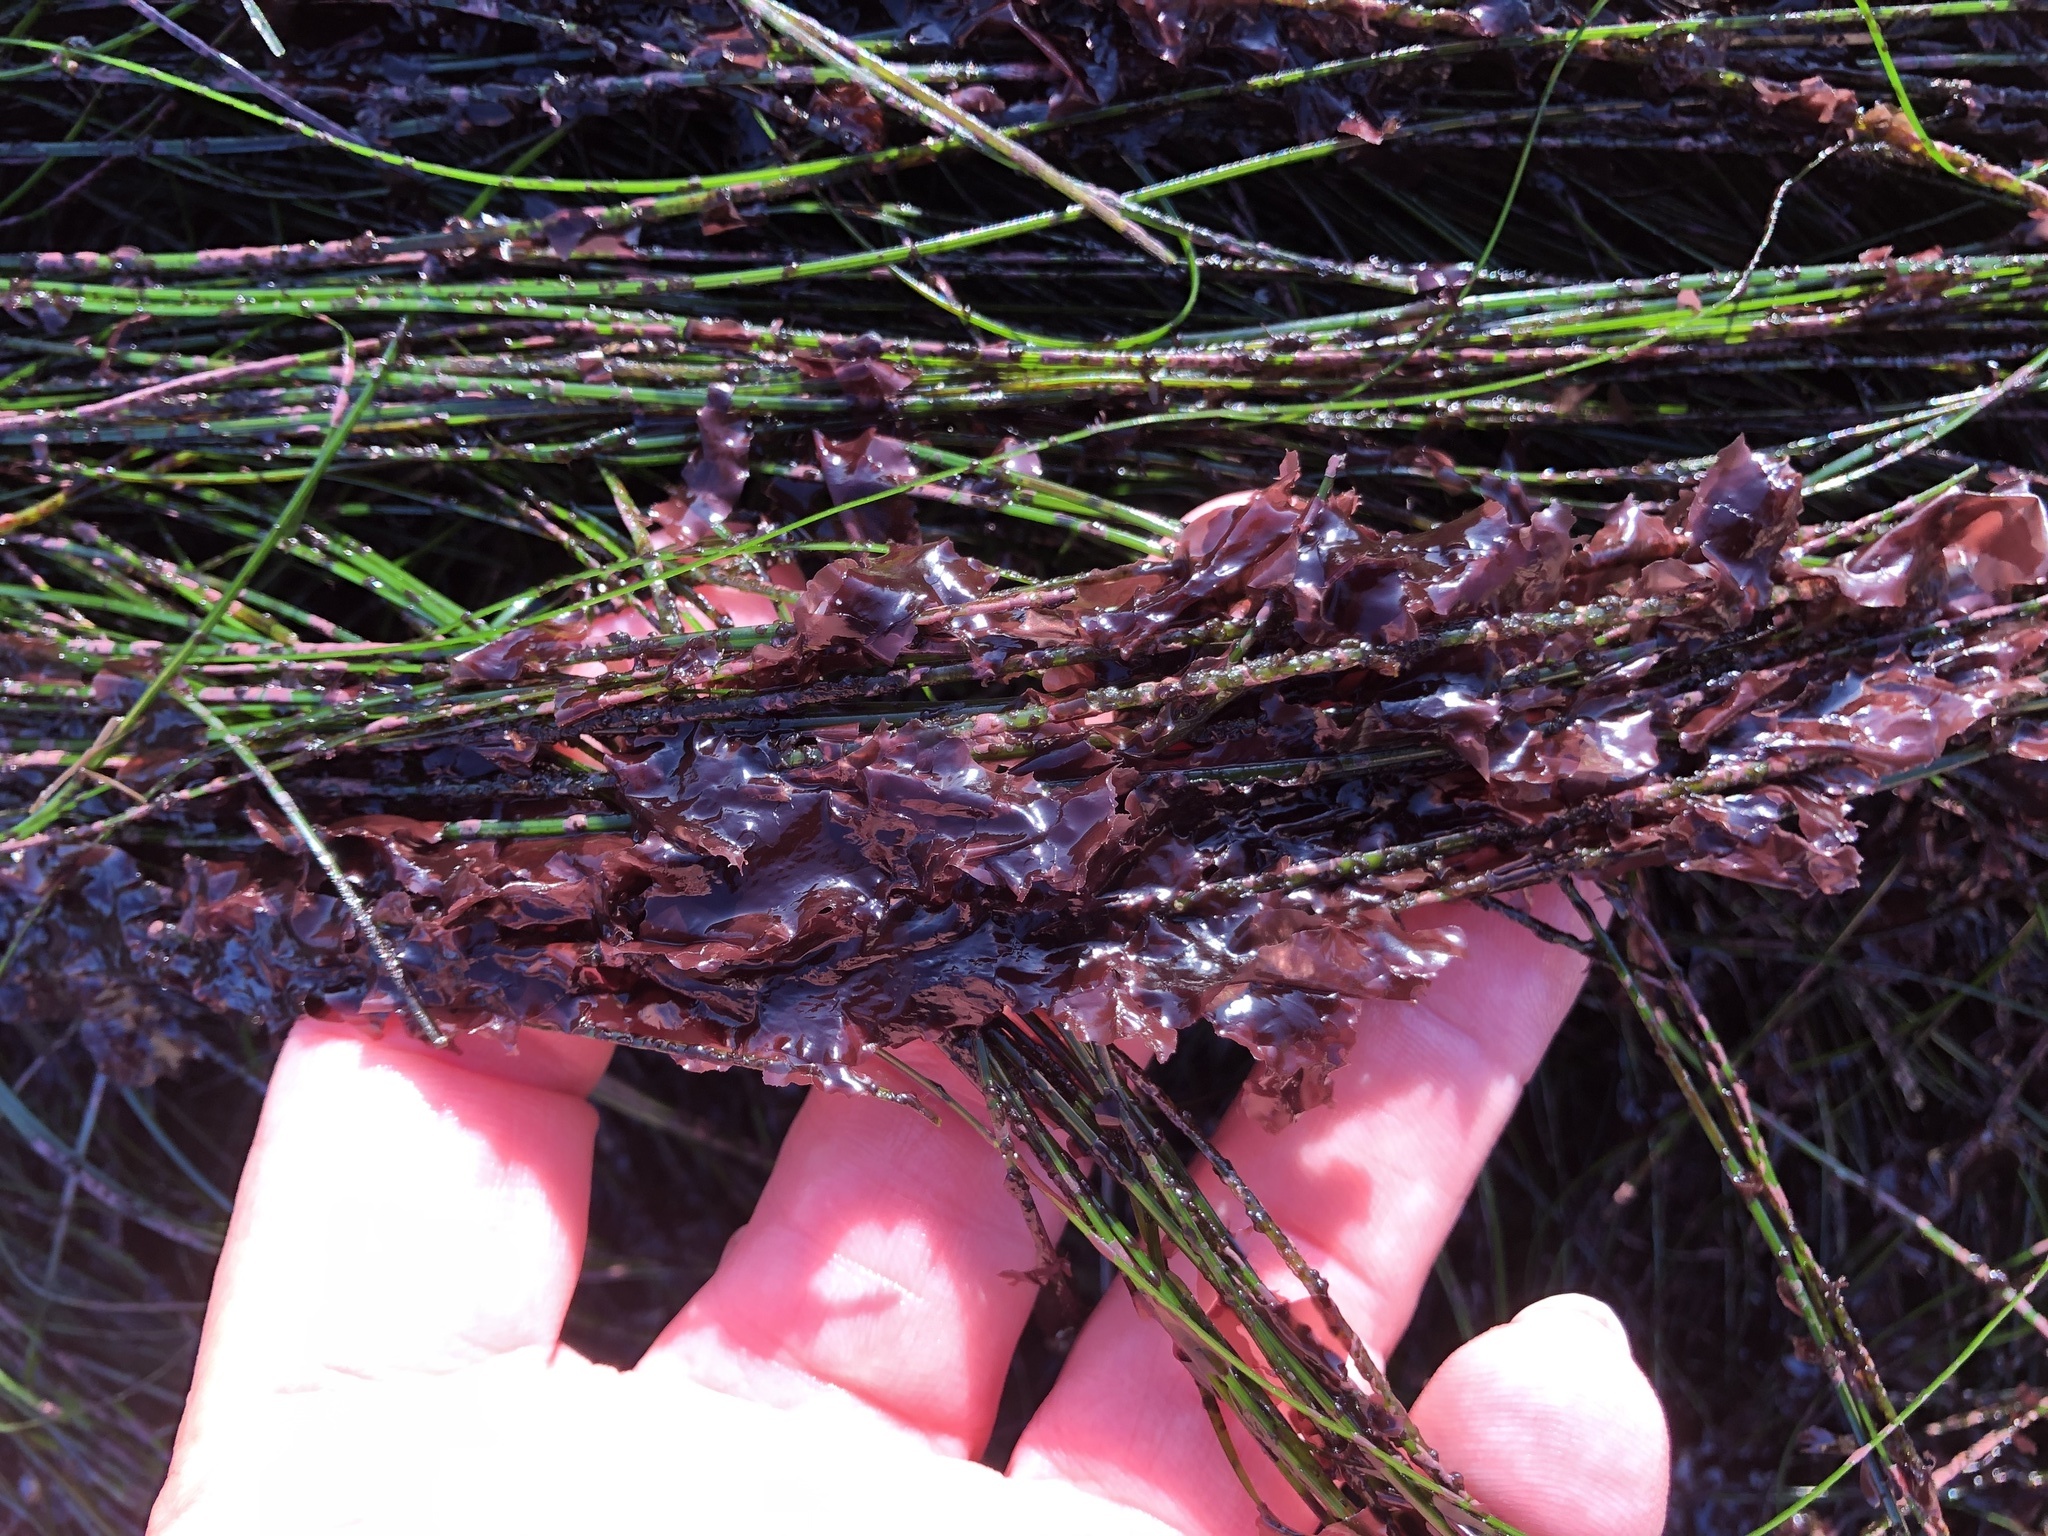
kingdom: Plantae
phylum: Rhodophyta
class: Compsopogonophyceae
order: Erythropeltidales
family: Erythrotrichiaceae
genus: Smithora
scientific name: Smithora naiadum
